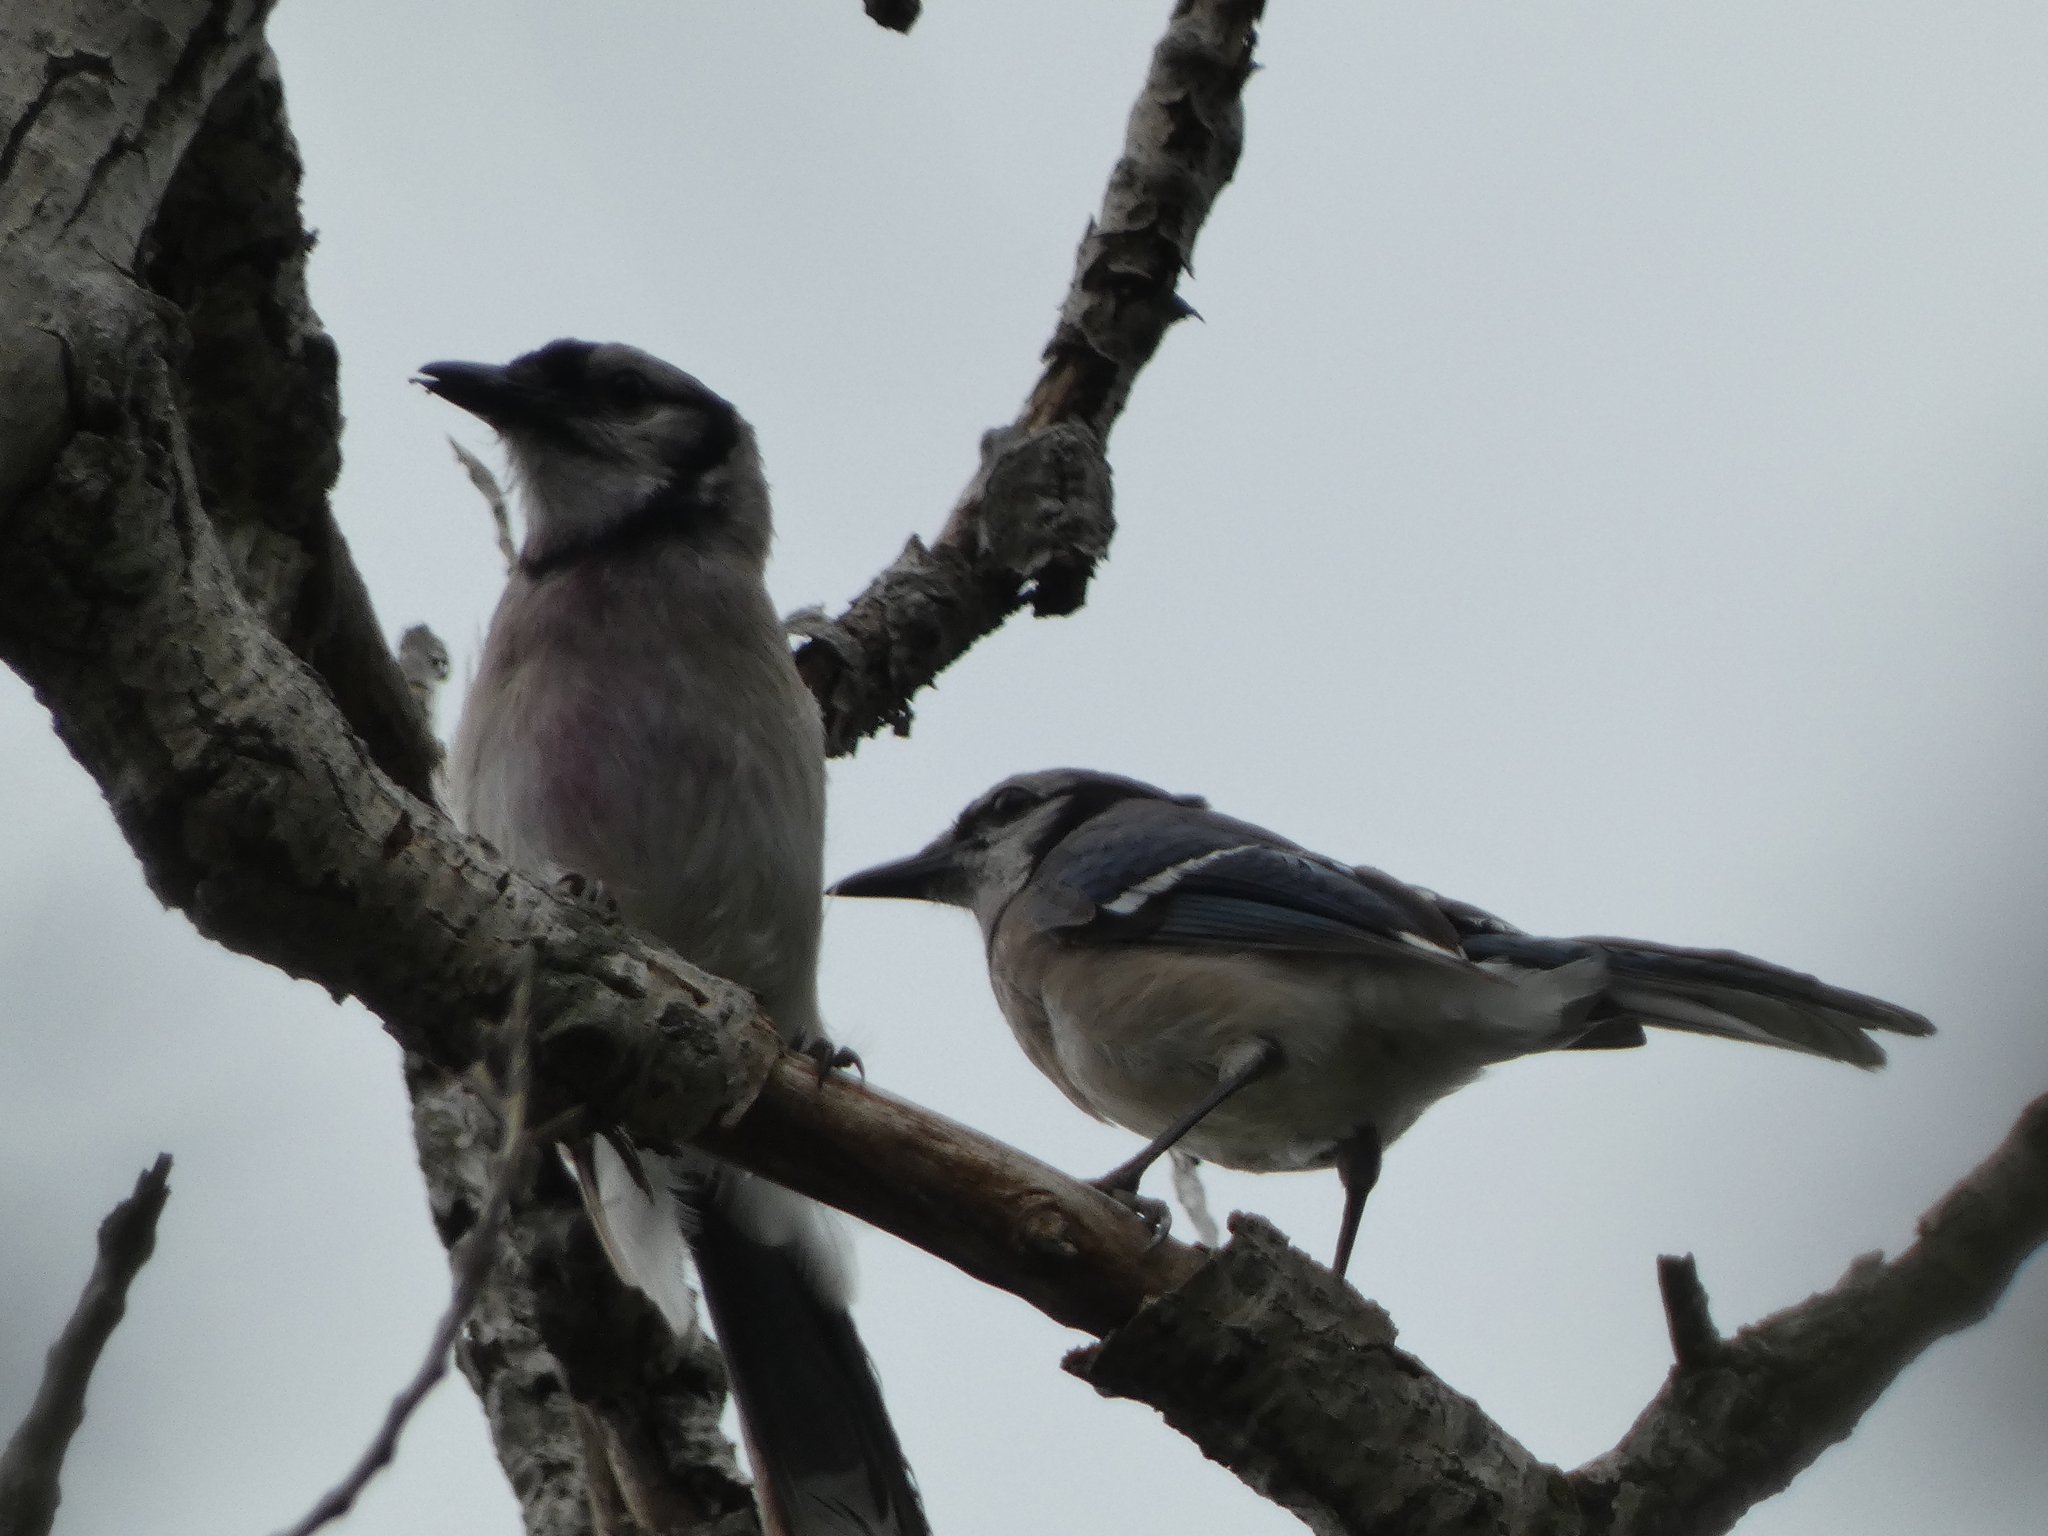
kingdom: Animalia
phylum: Chordata
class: Aves
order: Passeriformes
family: Corvidae
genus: Cyanocitta
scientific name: Cyanocitta cristata
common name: Blue jay
